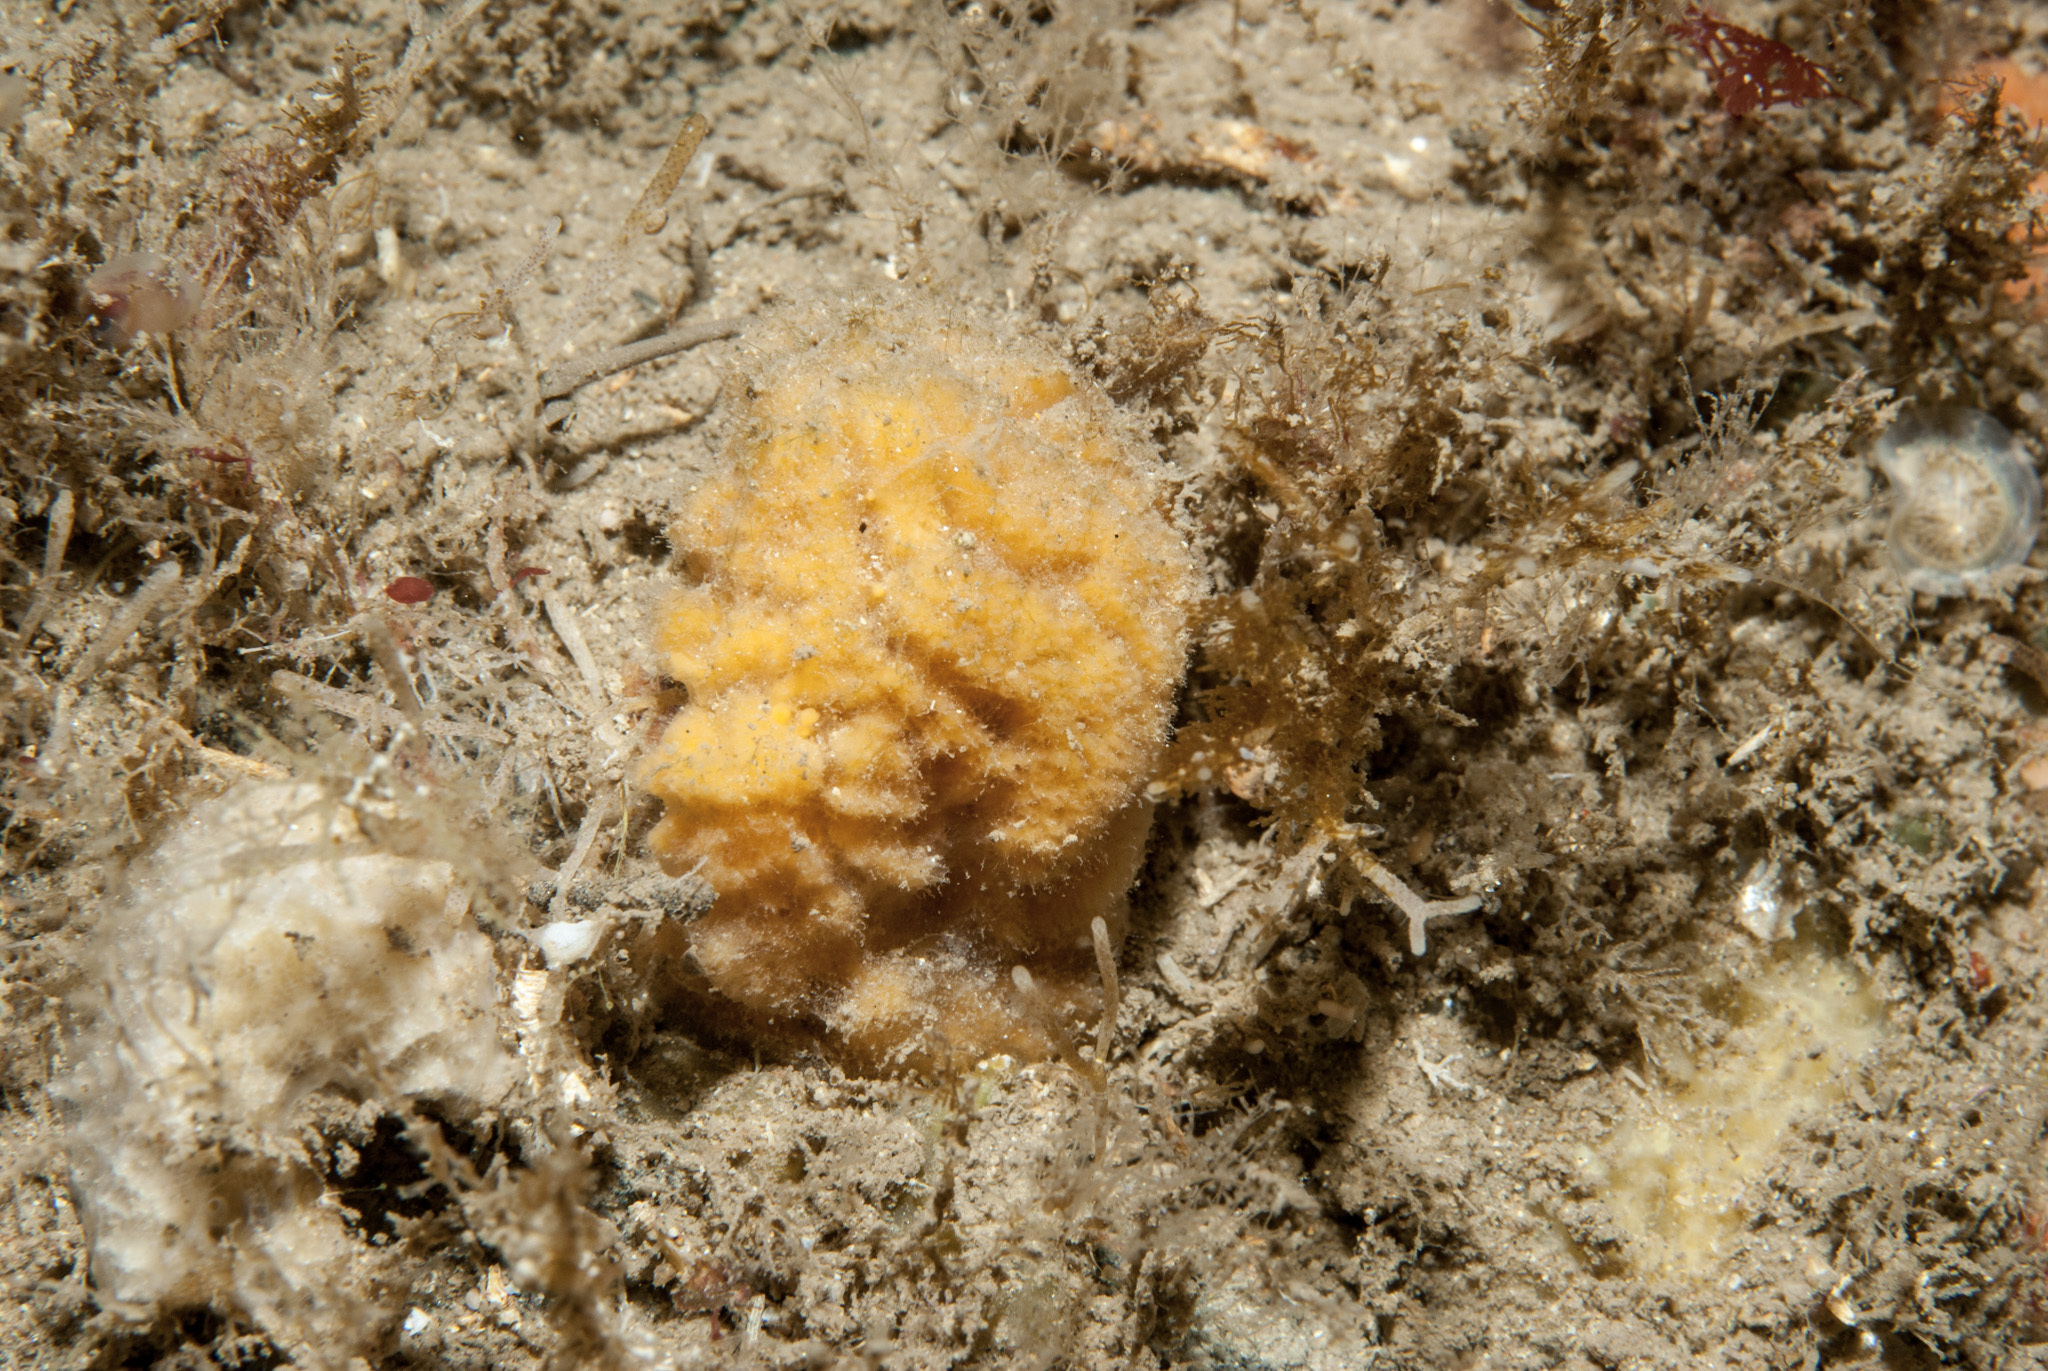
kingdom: Animalia
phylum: Porifera
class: Demospongiae
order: Axinellida
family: Axinellidae
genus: Axinella
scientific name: Axinella parva
